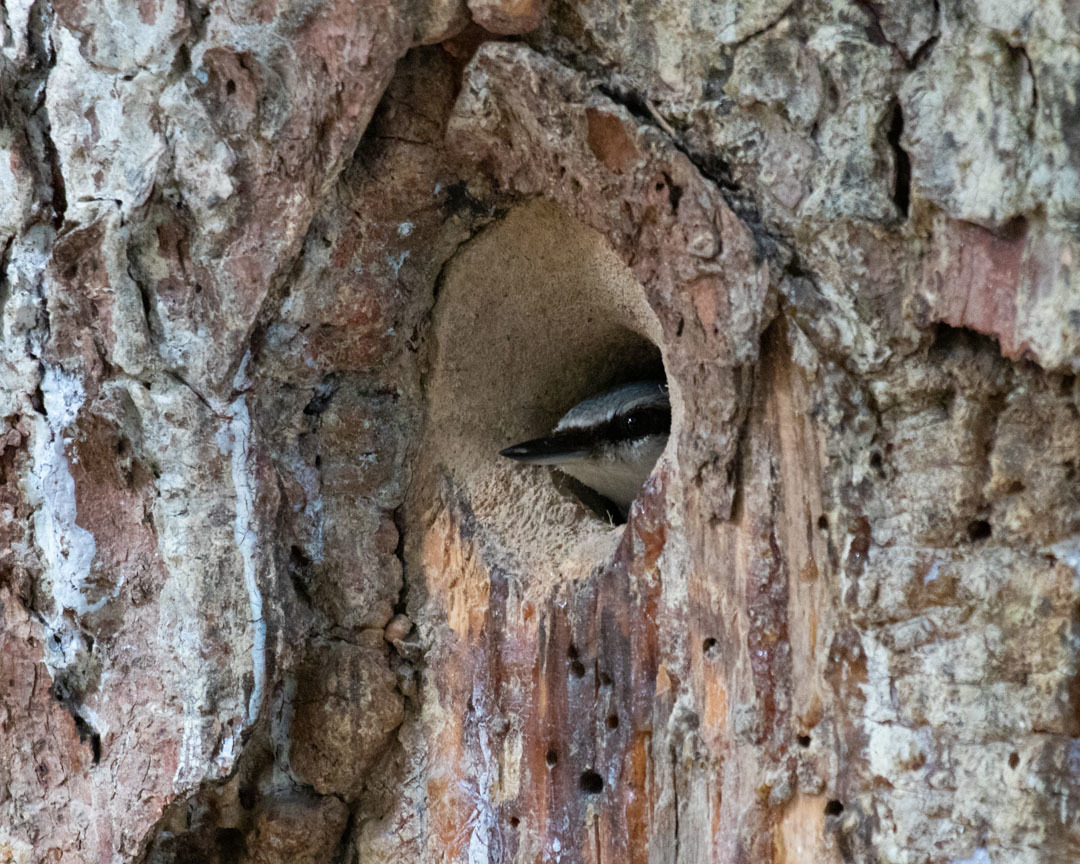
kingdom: Animalia
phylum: Chordata
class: Aves
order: Passeriformes
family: Sittidae
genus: Sitta
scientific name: Sitta europaea
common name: Eurasian nuthatch
